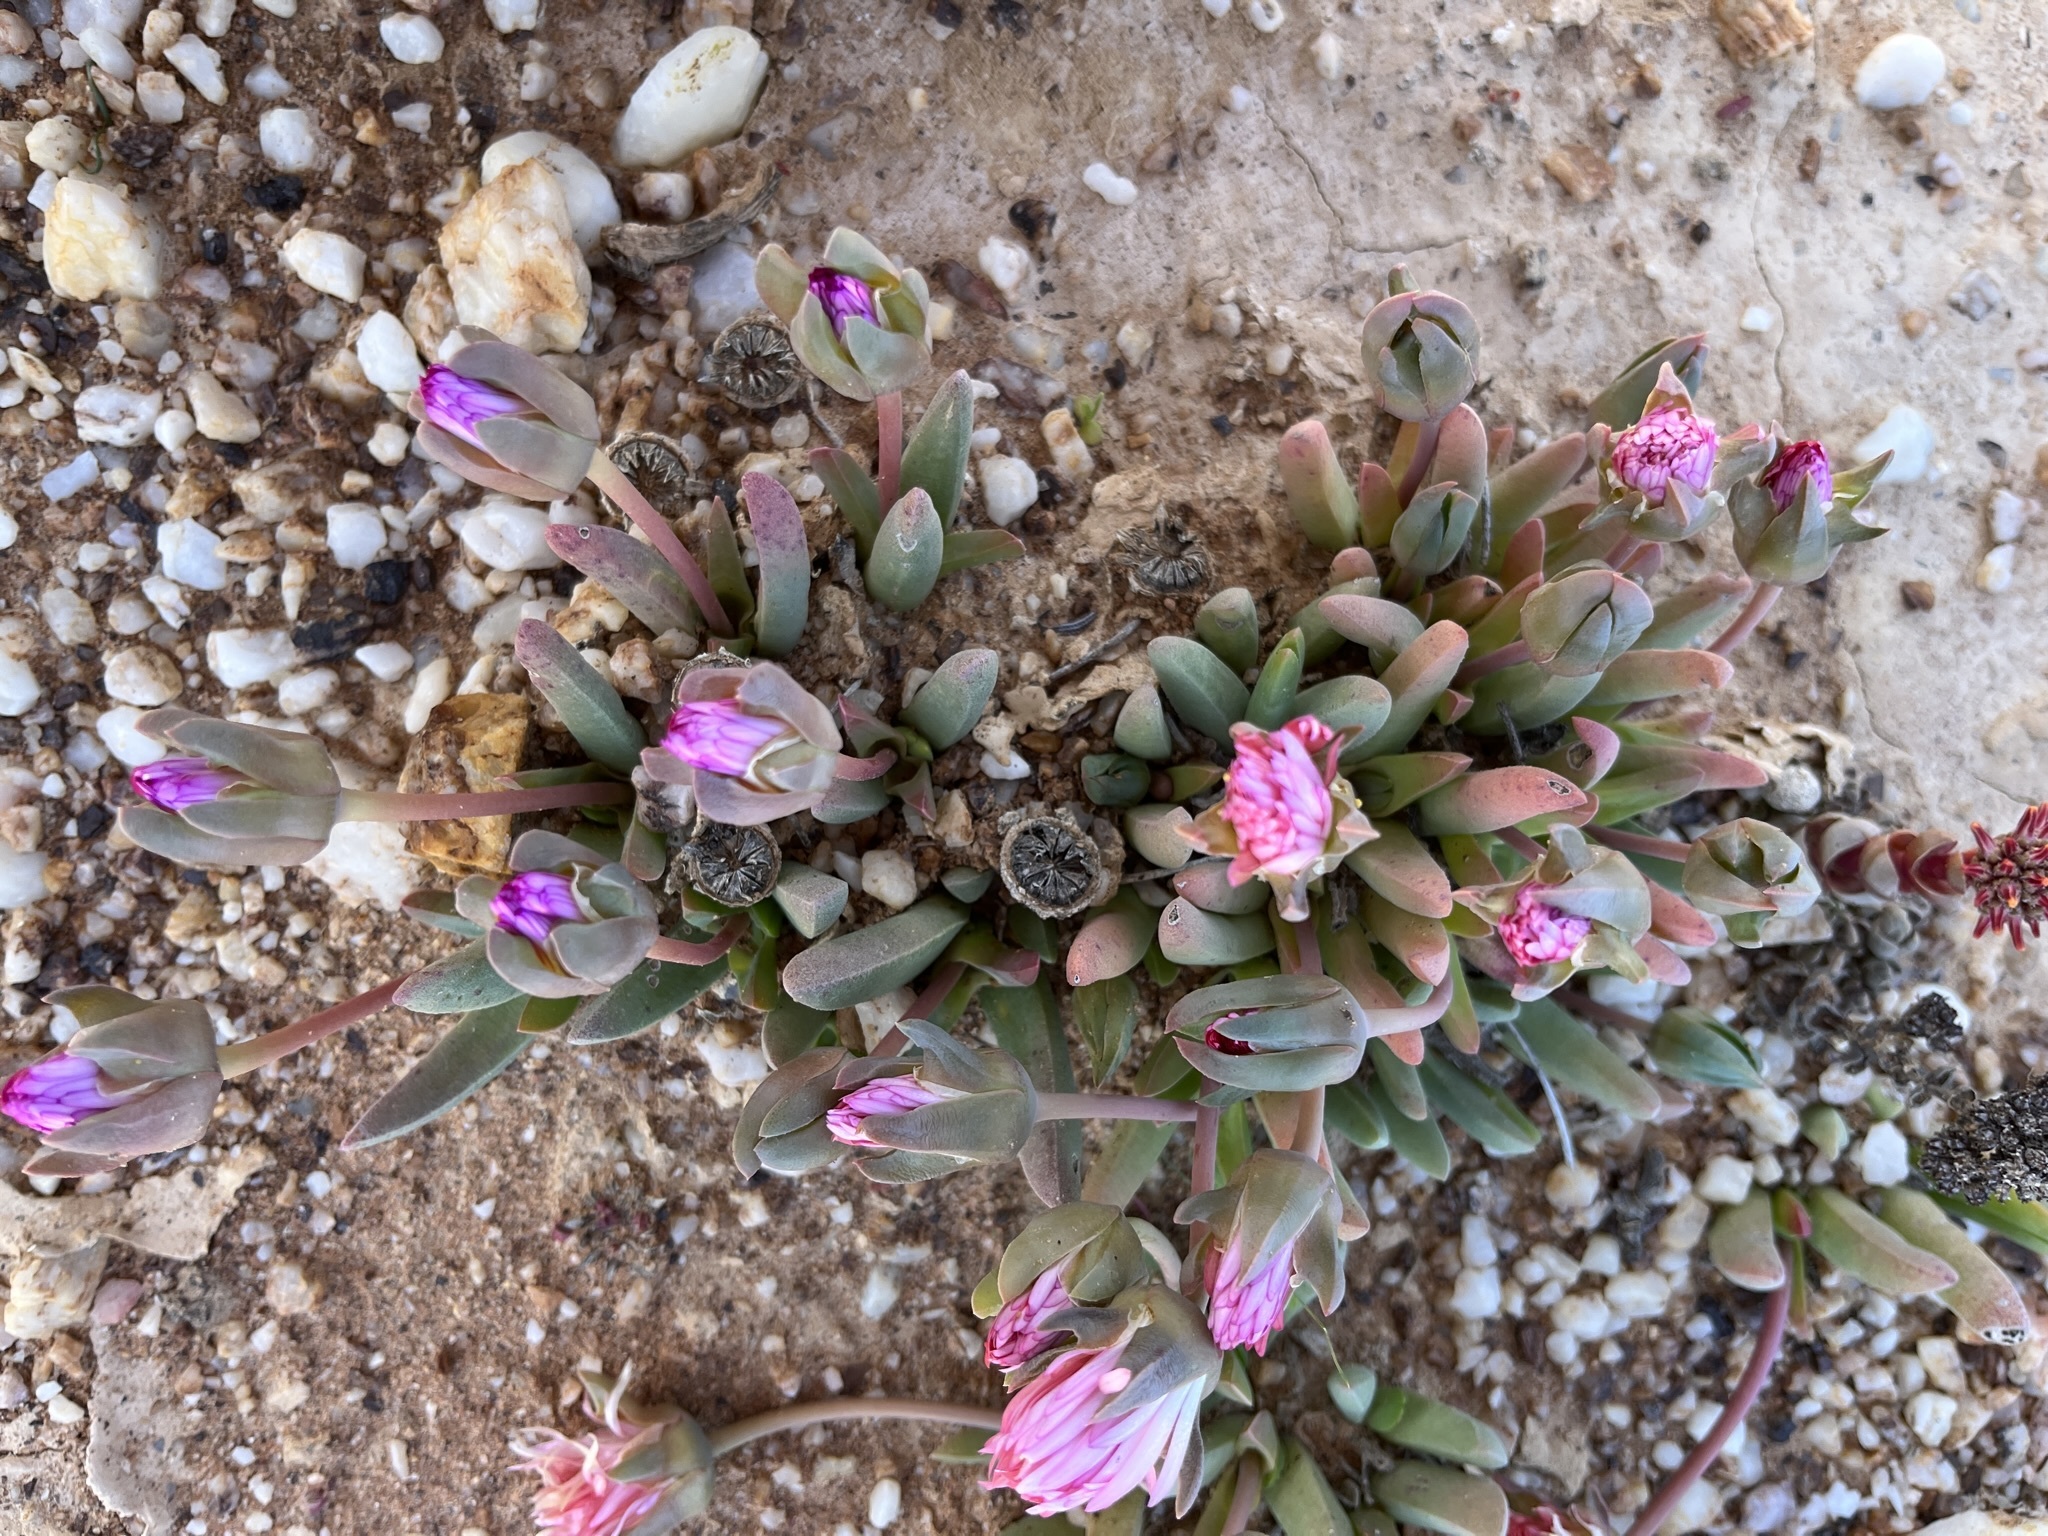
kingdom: Plantae
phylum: Tracheophyta
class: Magnoliopsida
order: Caryophyllales
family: Aizoaceae
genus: Cephalophyllum
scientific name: Cephalophyllum caespitosum
